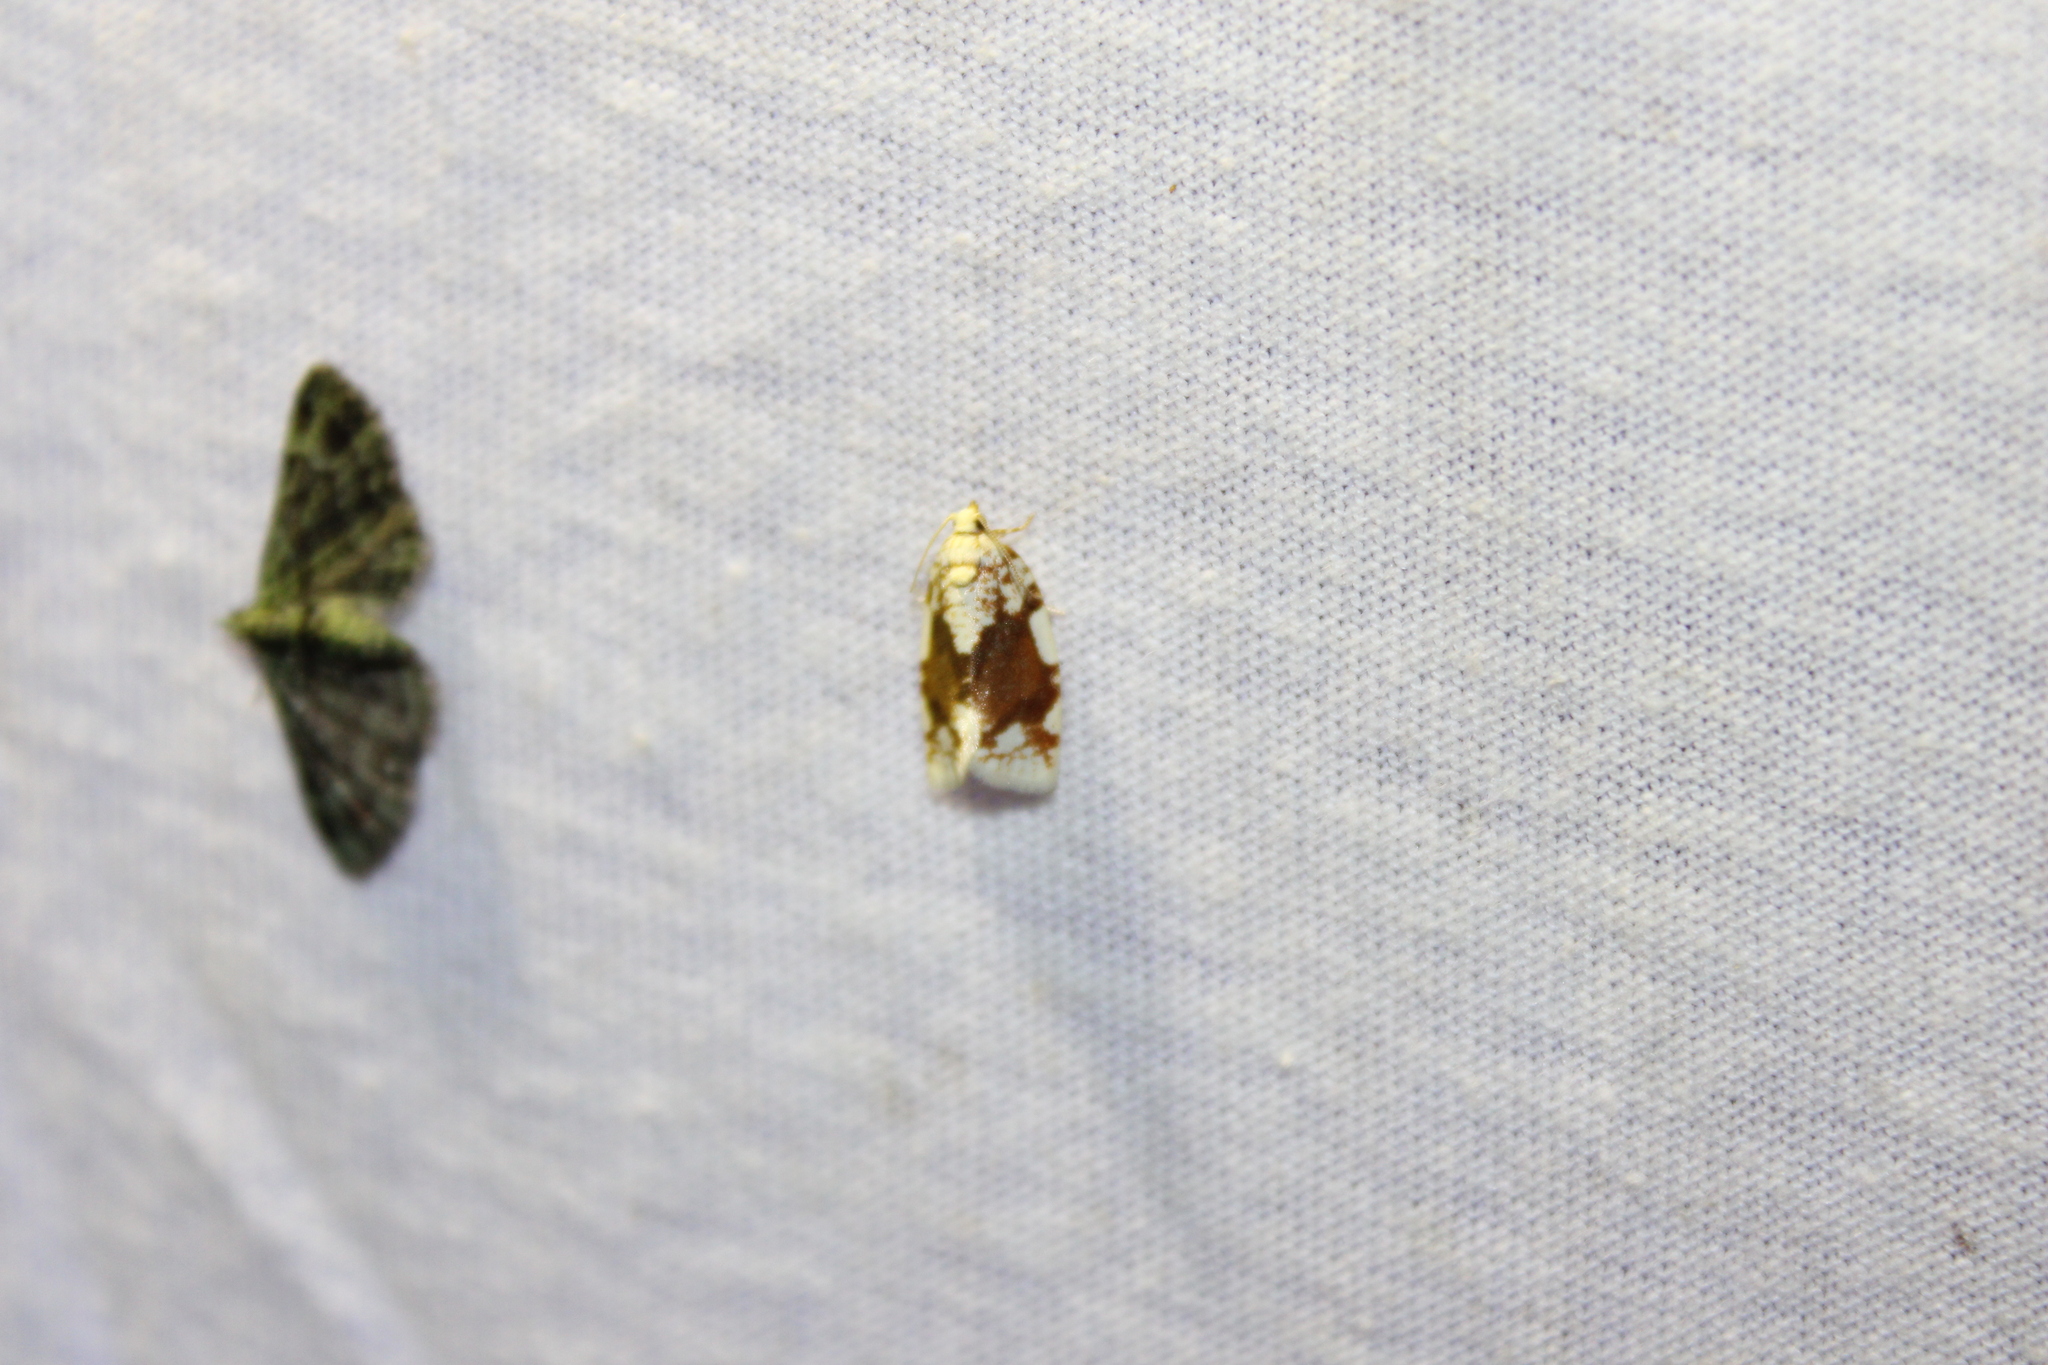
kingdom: Animalia
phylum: Arthropoda
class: Insecta
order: Lepidoptera
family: Tortricidae
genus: Argyrotaenia
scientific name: Argyrotaenia alisellana
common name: White-spotted leafroller moth
